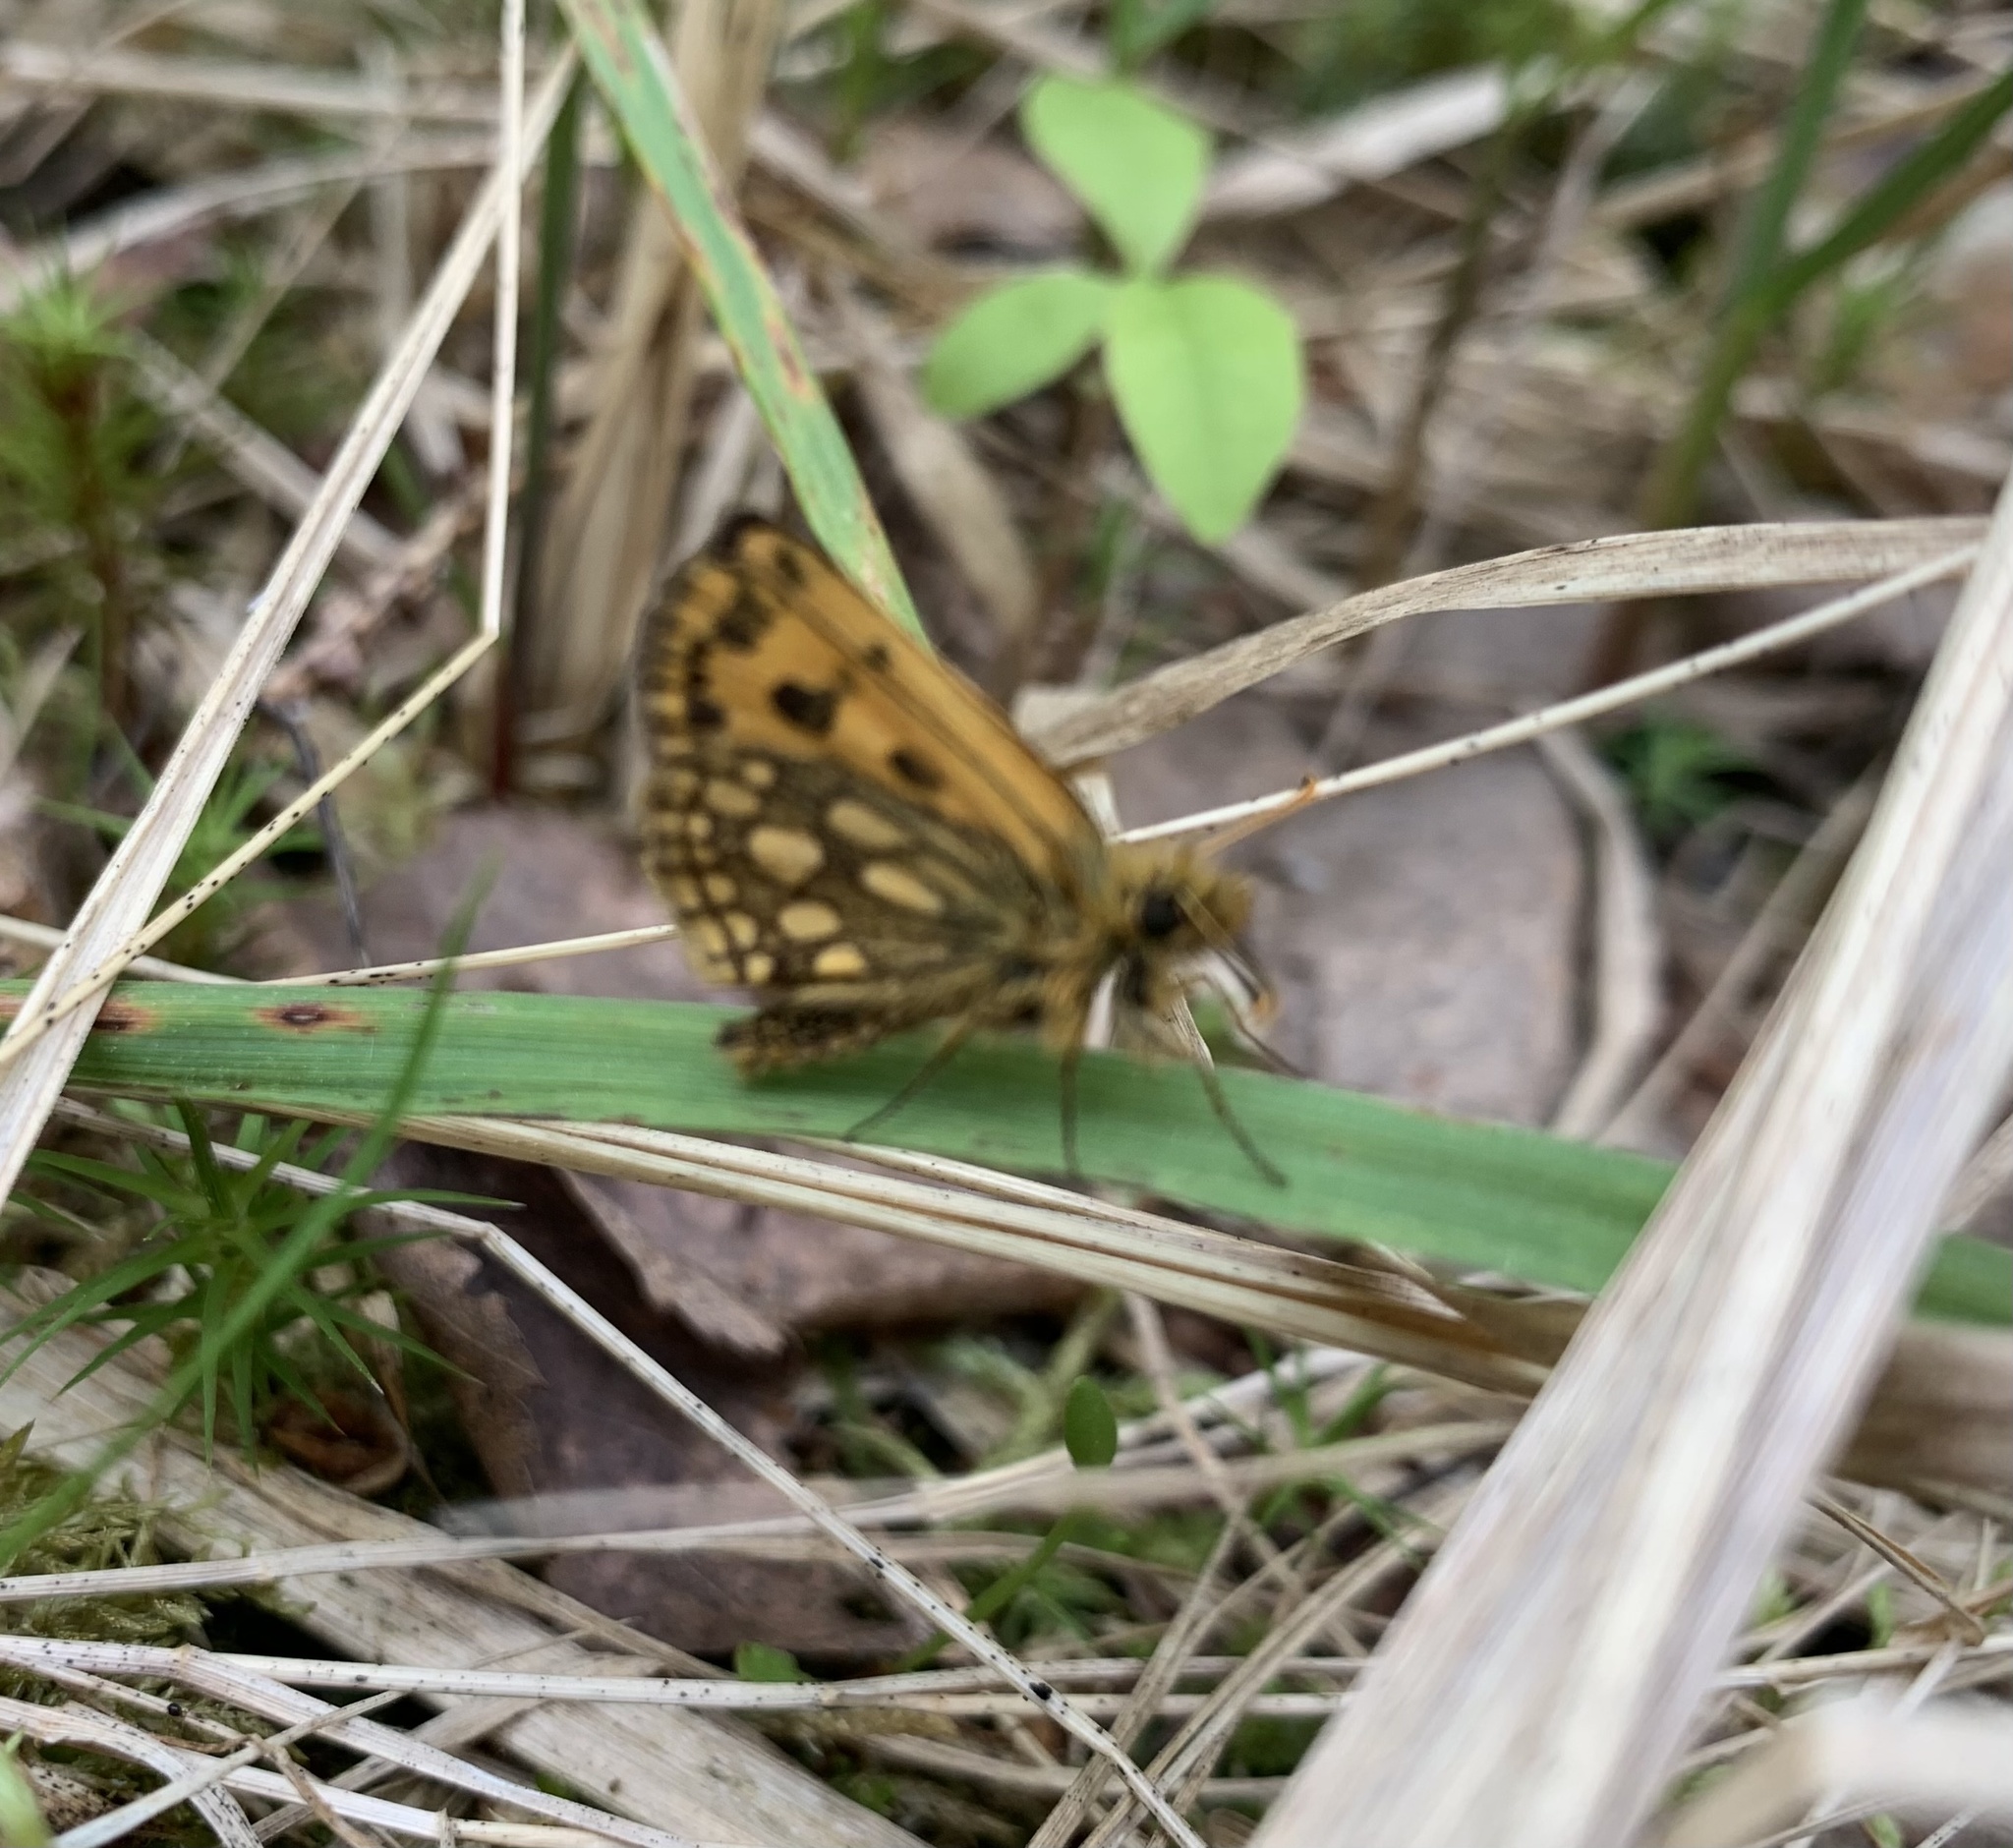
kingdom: Animalia
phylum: Arthropoda
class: Insecta
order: Lepidoptera
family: Hesperiidae
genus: Carterocephalus
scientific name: Carterocephalus silvicola
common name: Northern chequered skipper
